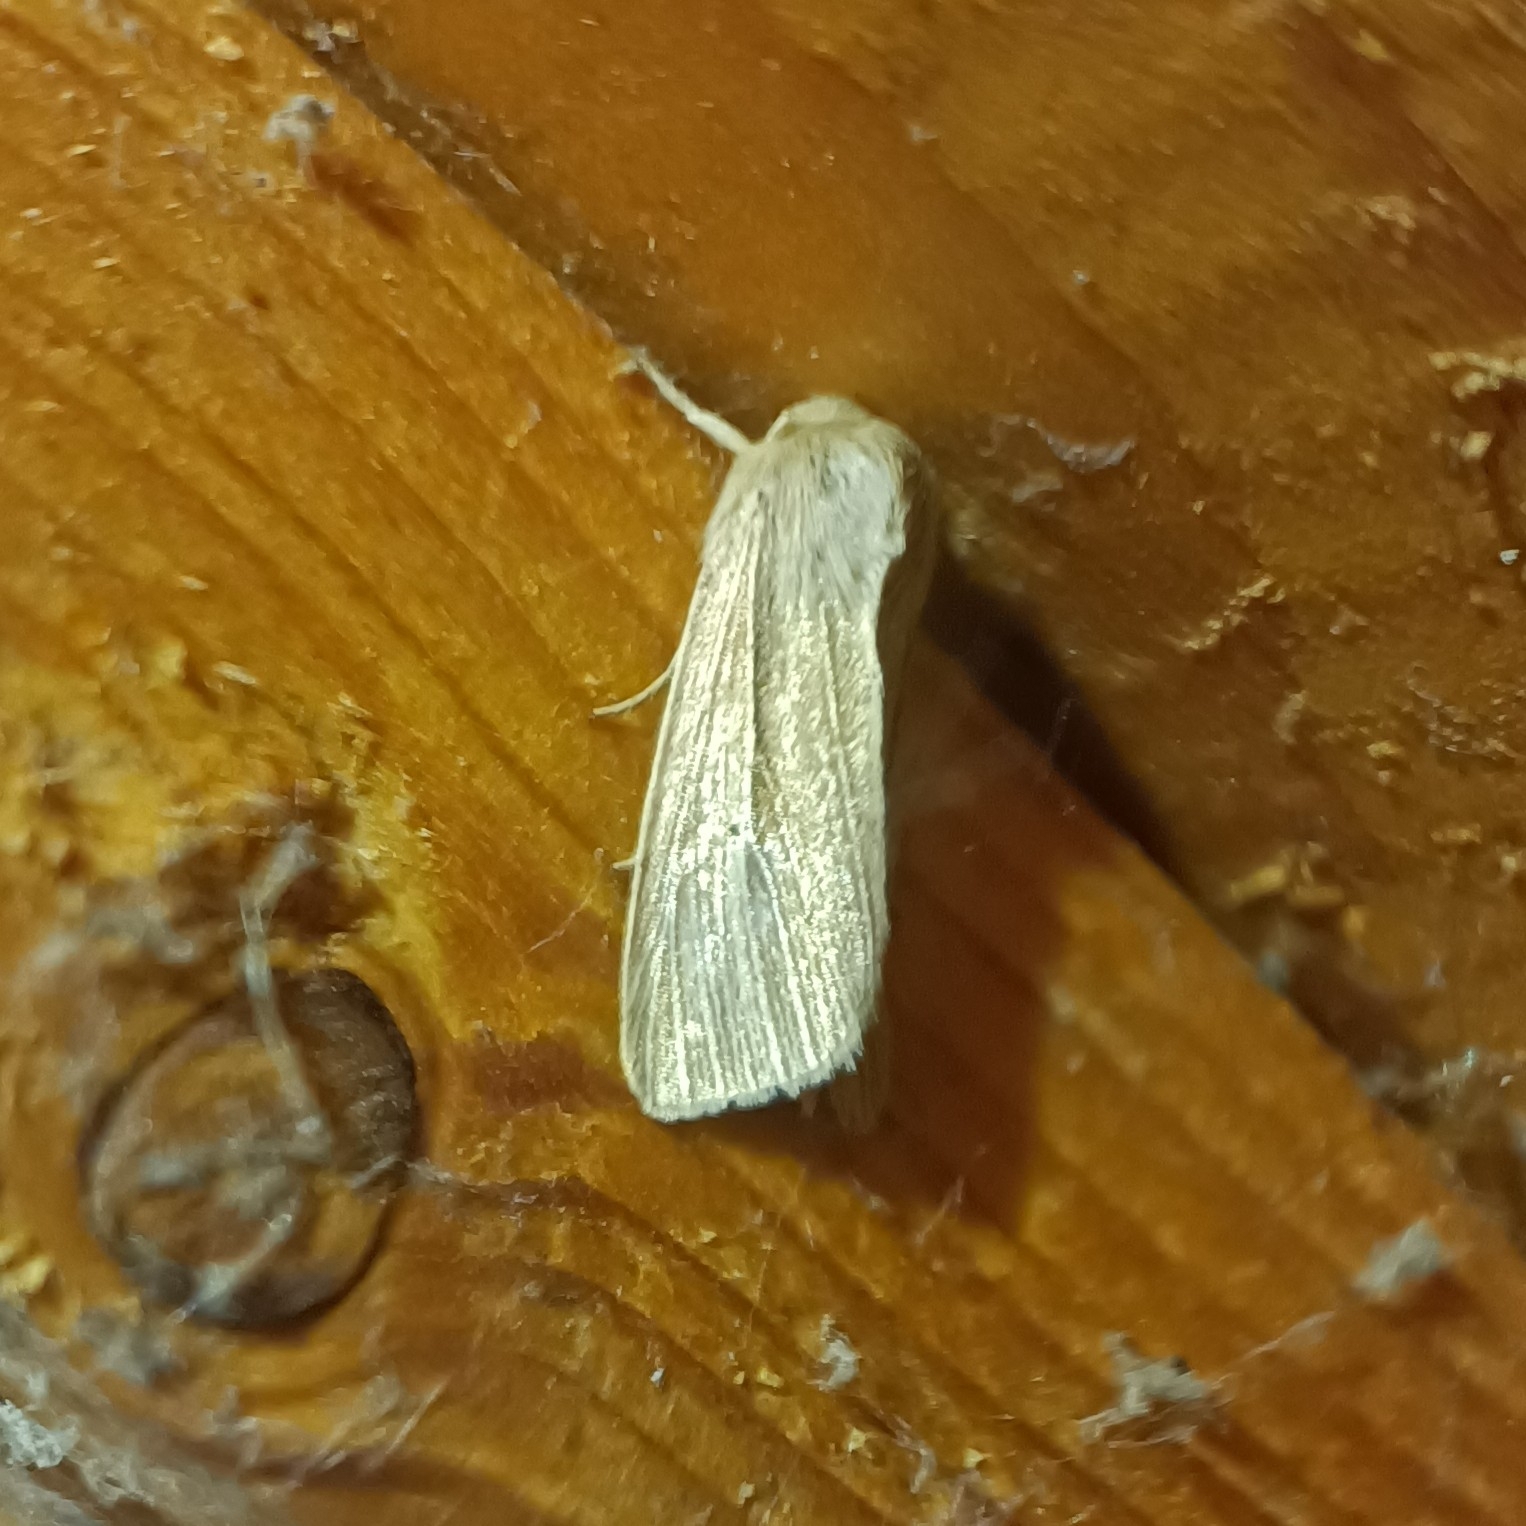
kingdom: Animalia
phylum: Arthropoda
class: Insecta
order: Lepidoptera
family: Noctuidae
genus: Mythimna
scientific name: Mythimna pallens
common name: Common wainscot
